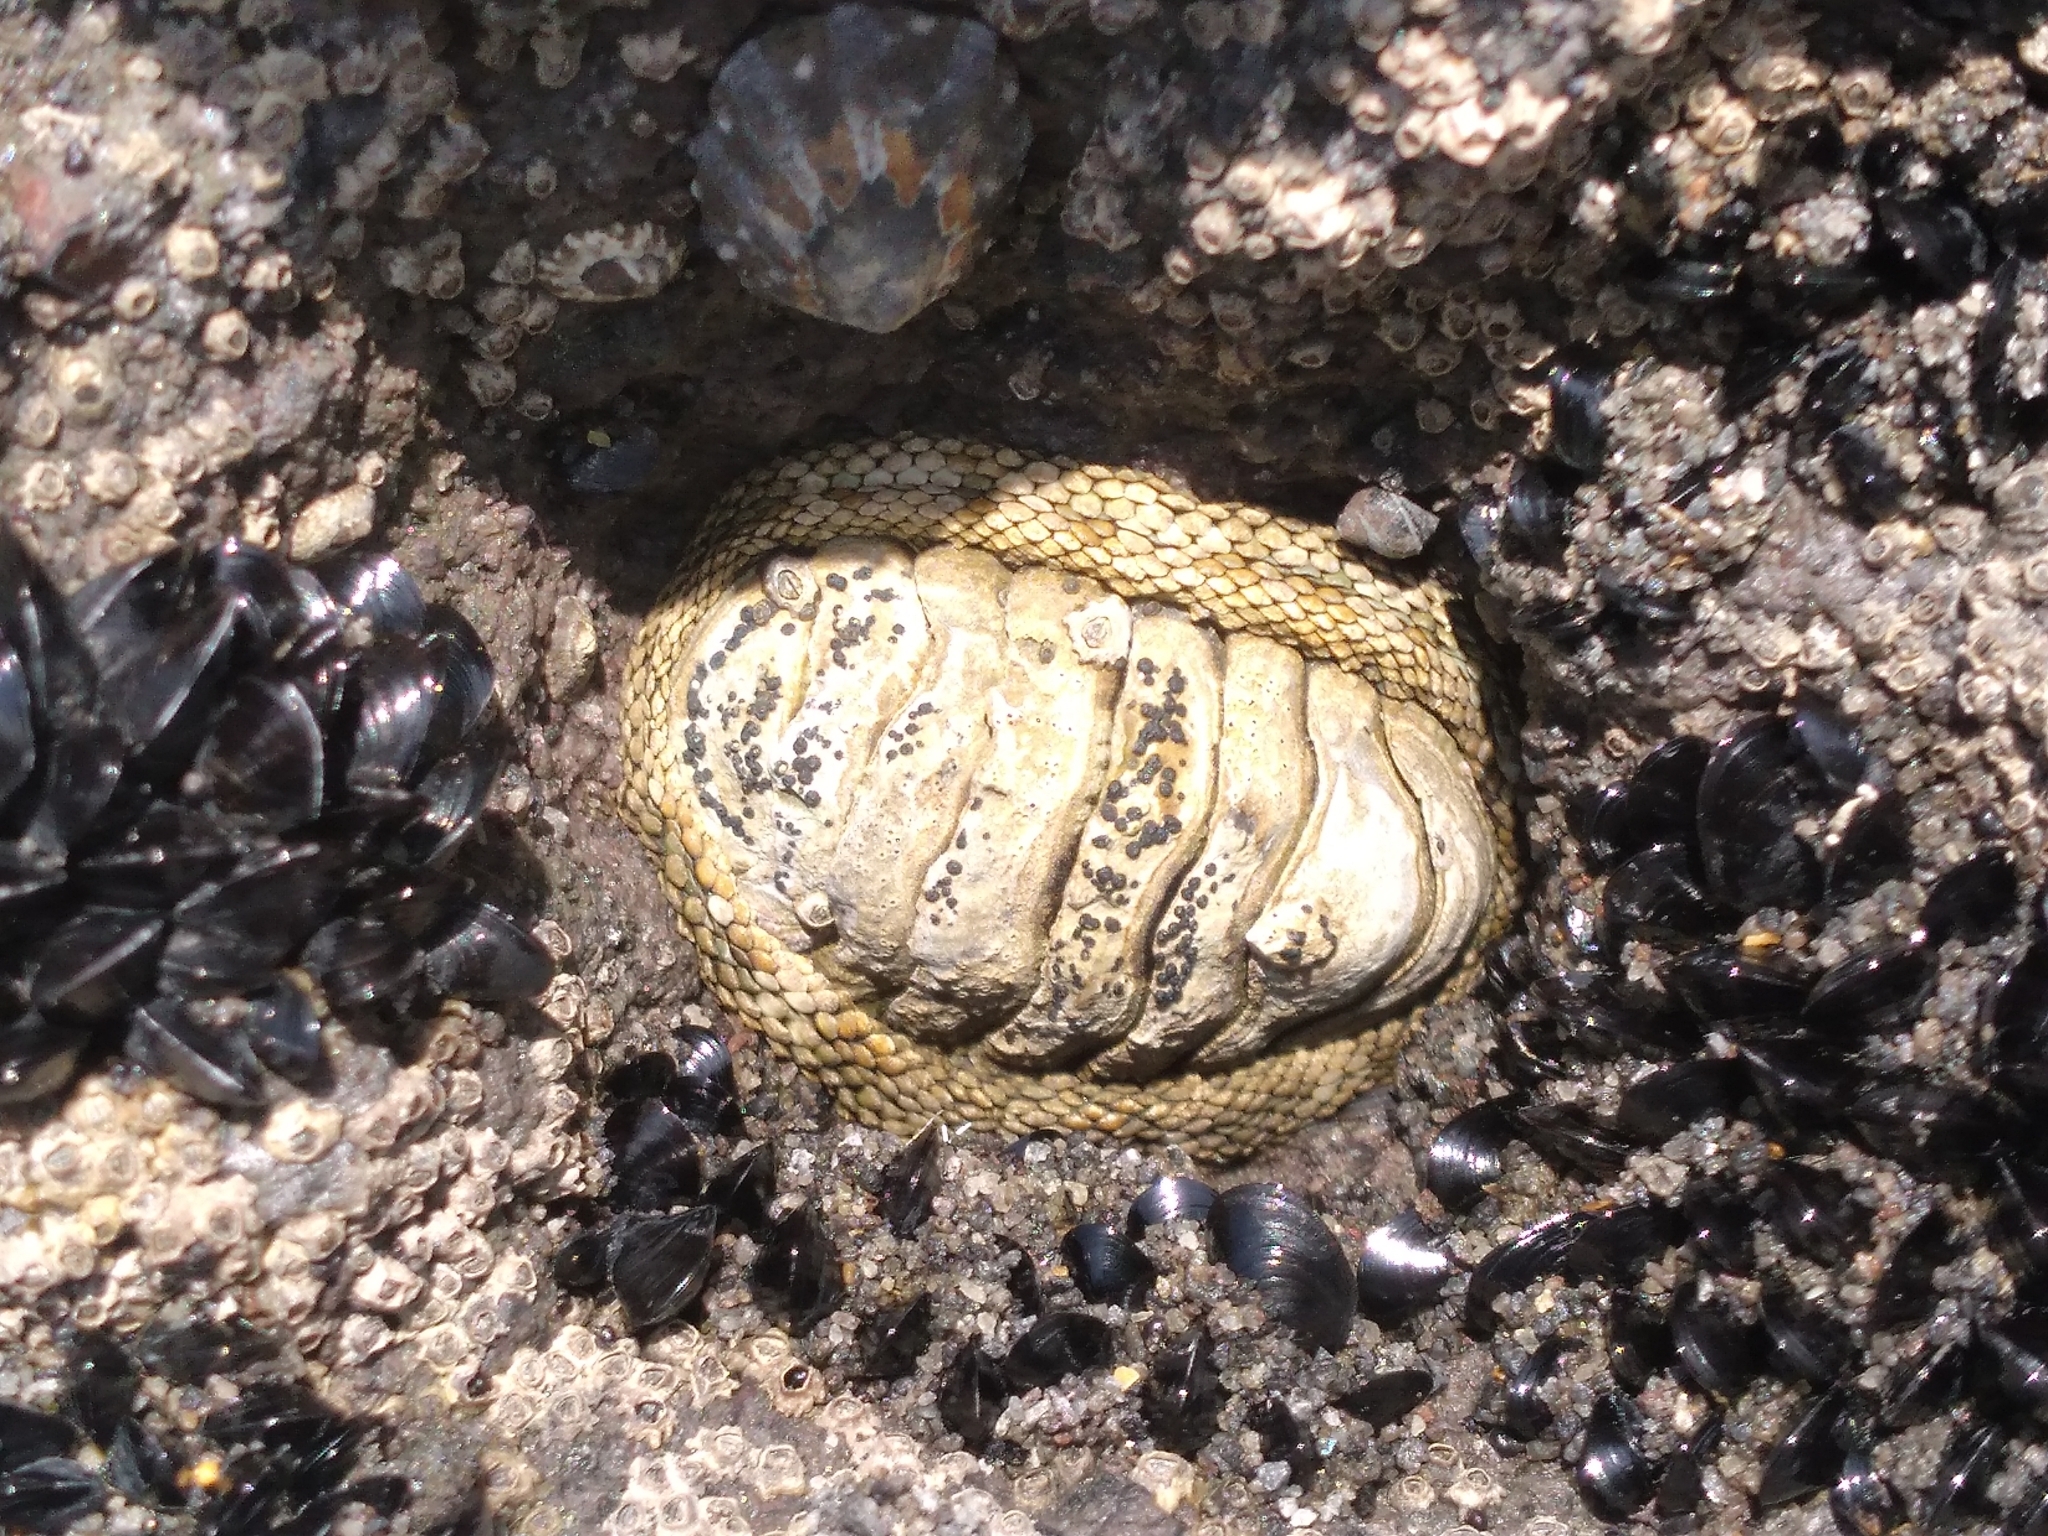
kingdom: Animalia
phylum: Mollusca
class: Polyplacophora
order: Chitonida
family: Chitonidae
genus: Sypharochiton
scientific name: Sypharochiton pelliserpentis
